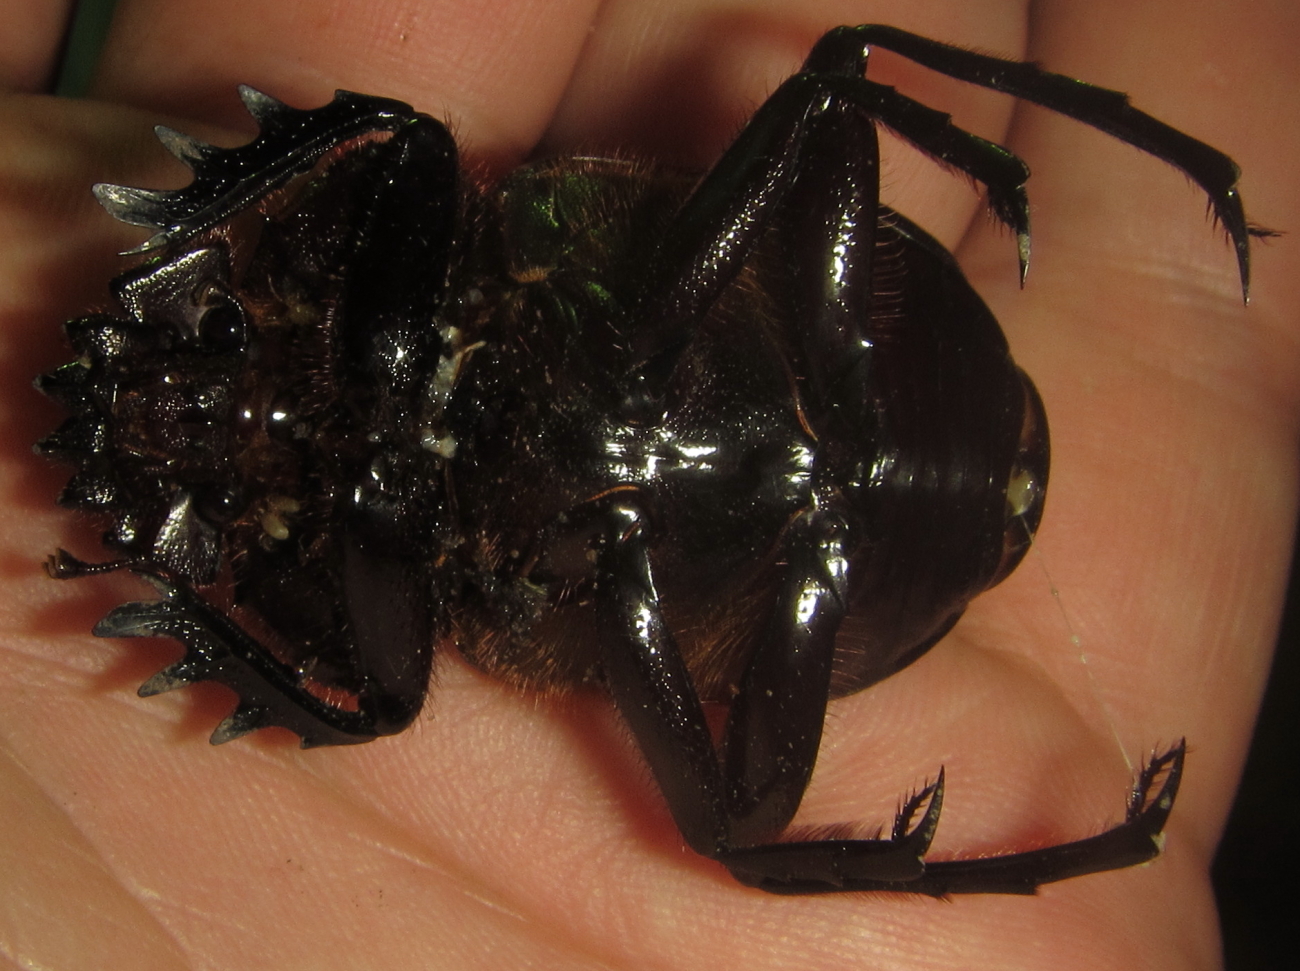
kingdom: Animalia
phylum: Arthropoda
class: Insecta
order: Coleoptera
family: Scarabaeidae
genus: Kheper
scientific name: Kheper prodigiosus
